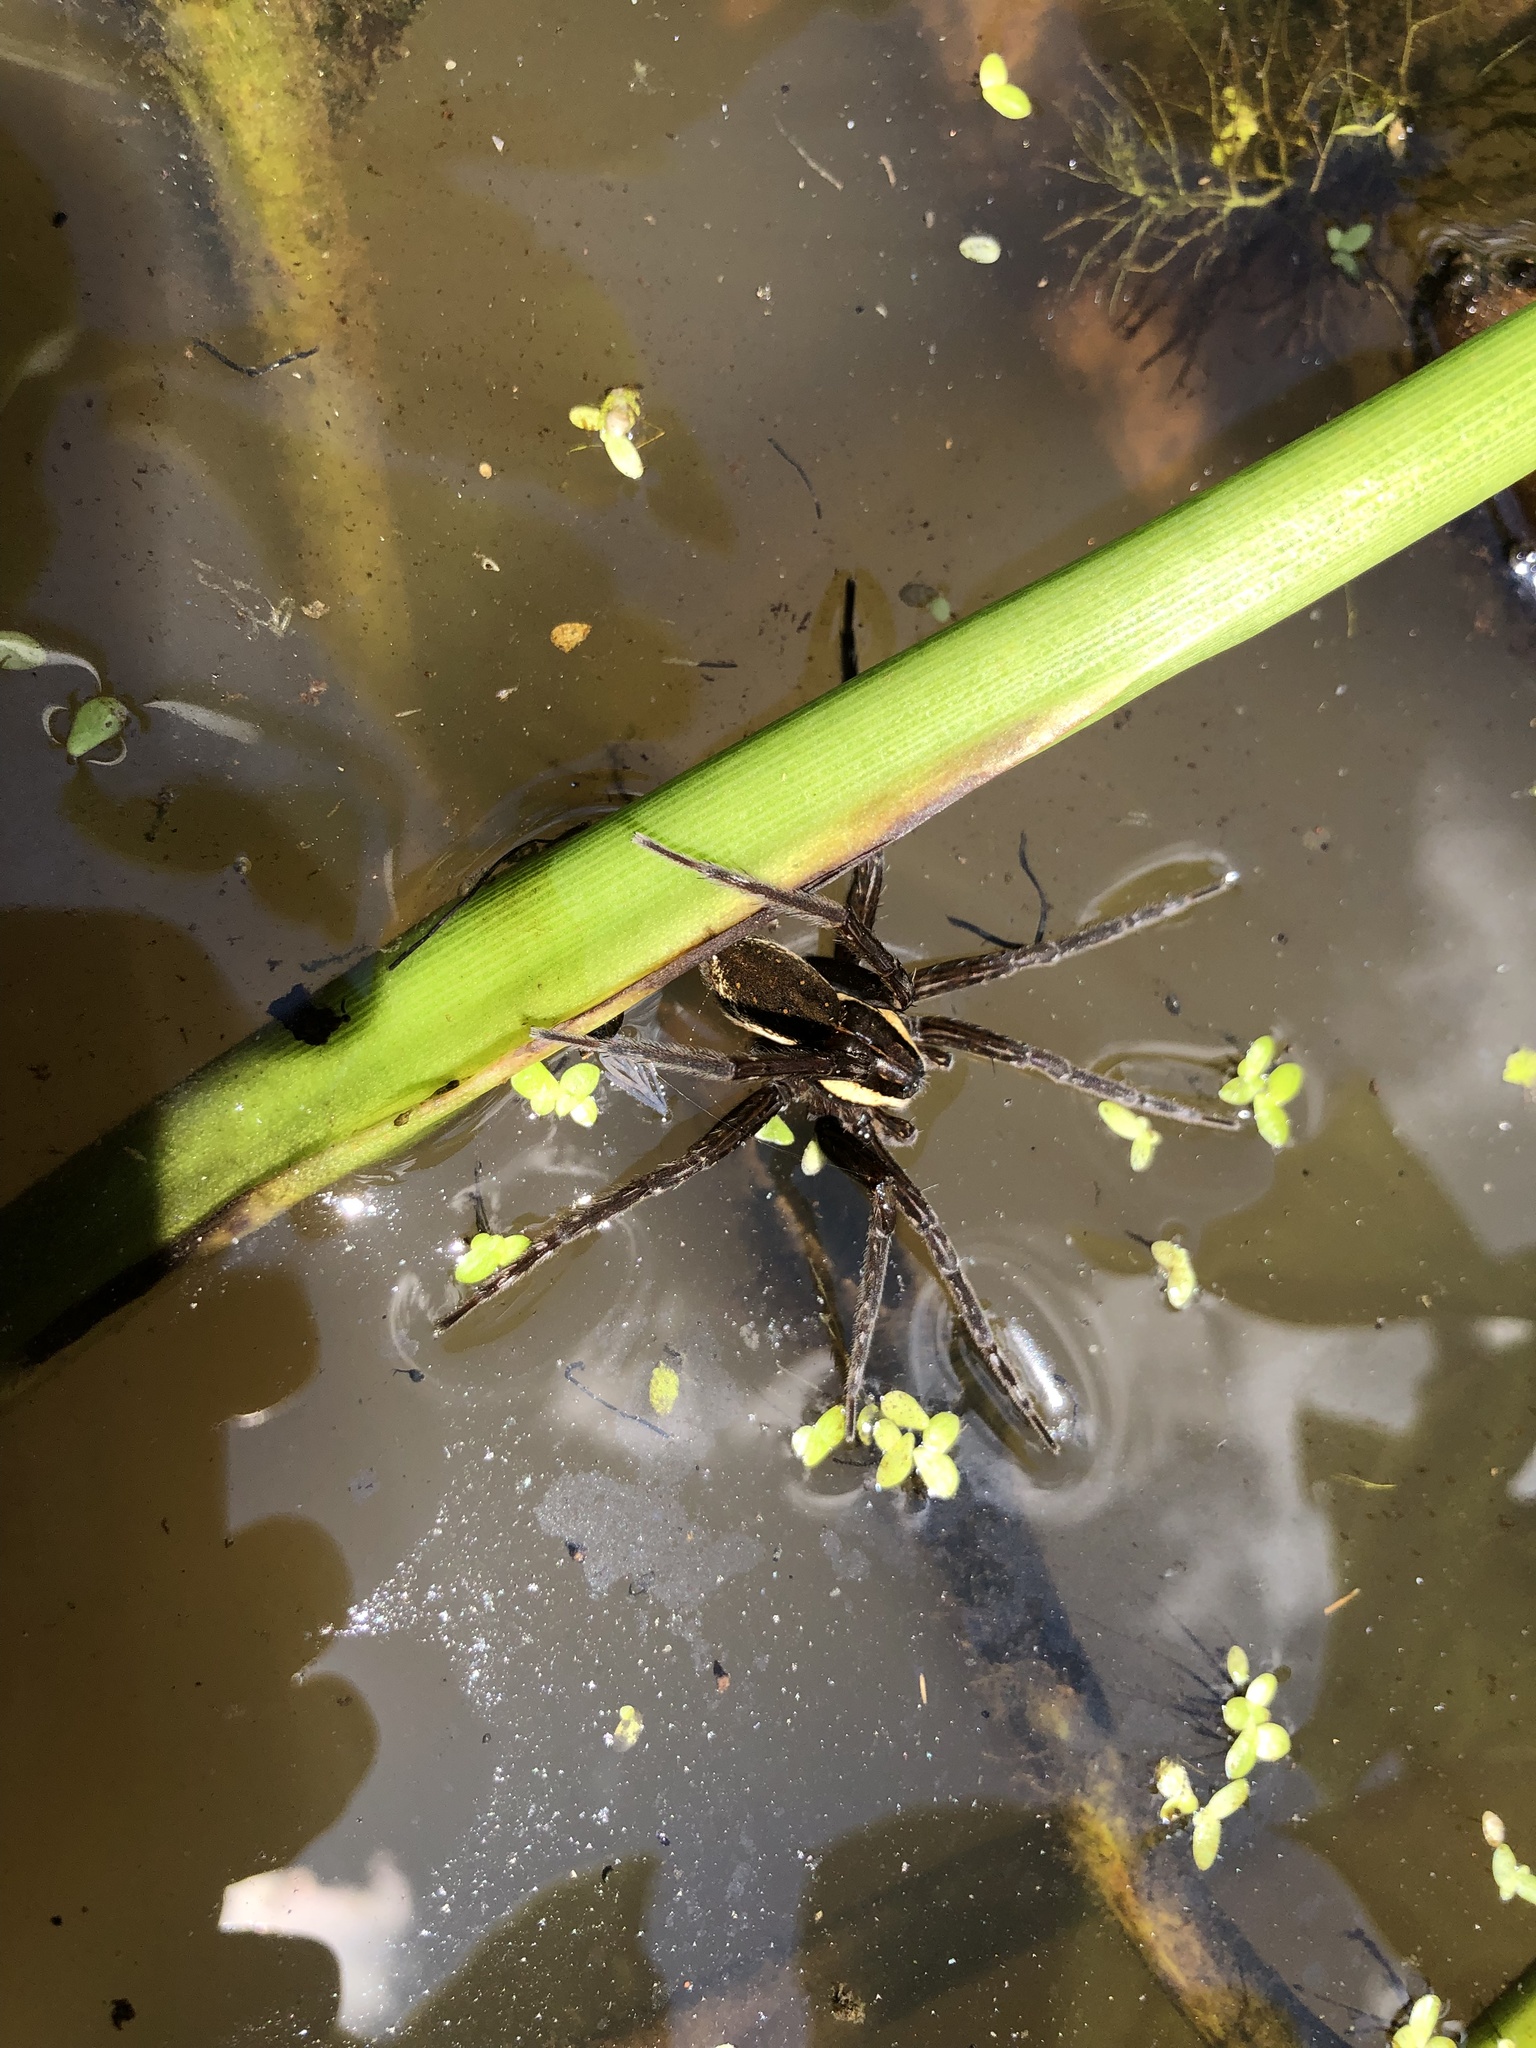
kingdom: Animalia
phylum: Arthropoda
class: Arachnida
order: Araneae
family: Pisauridae
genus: Dolomedes
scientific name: Dolomedes triton
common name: Six-spotted fishing spider
